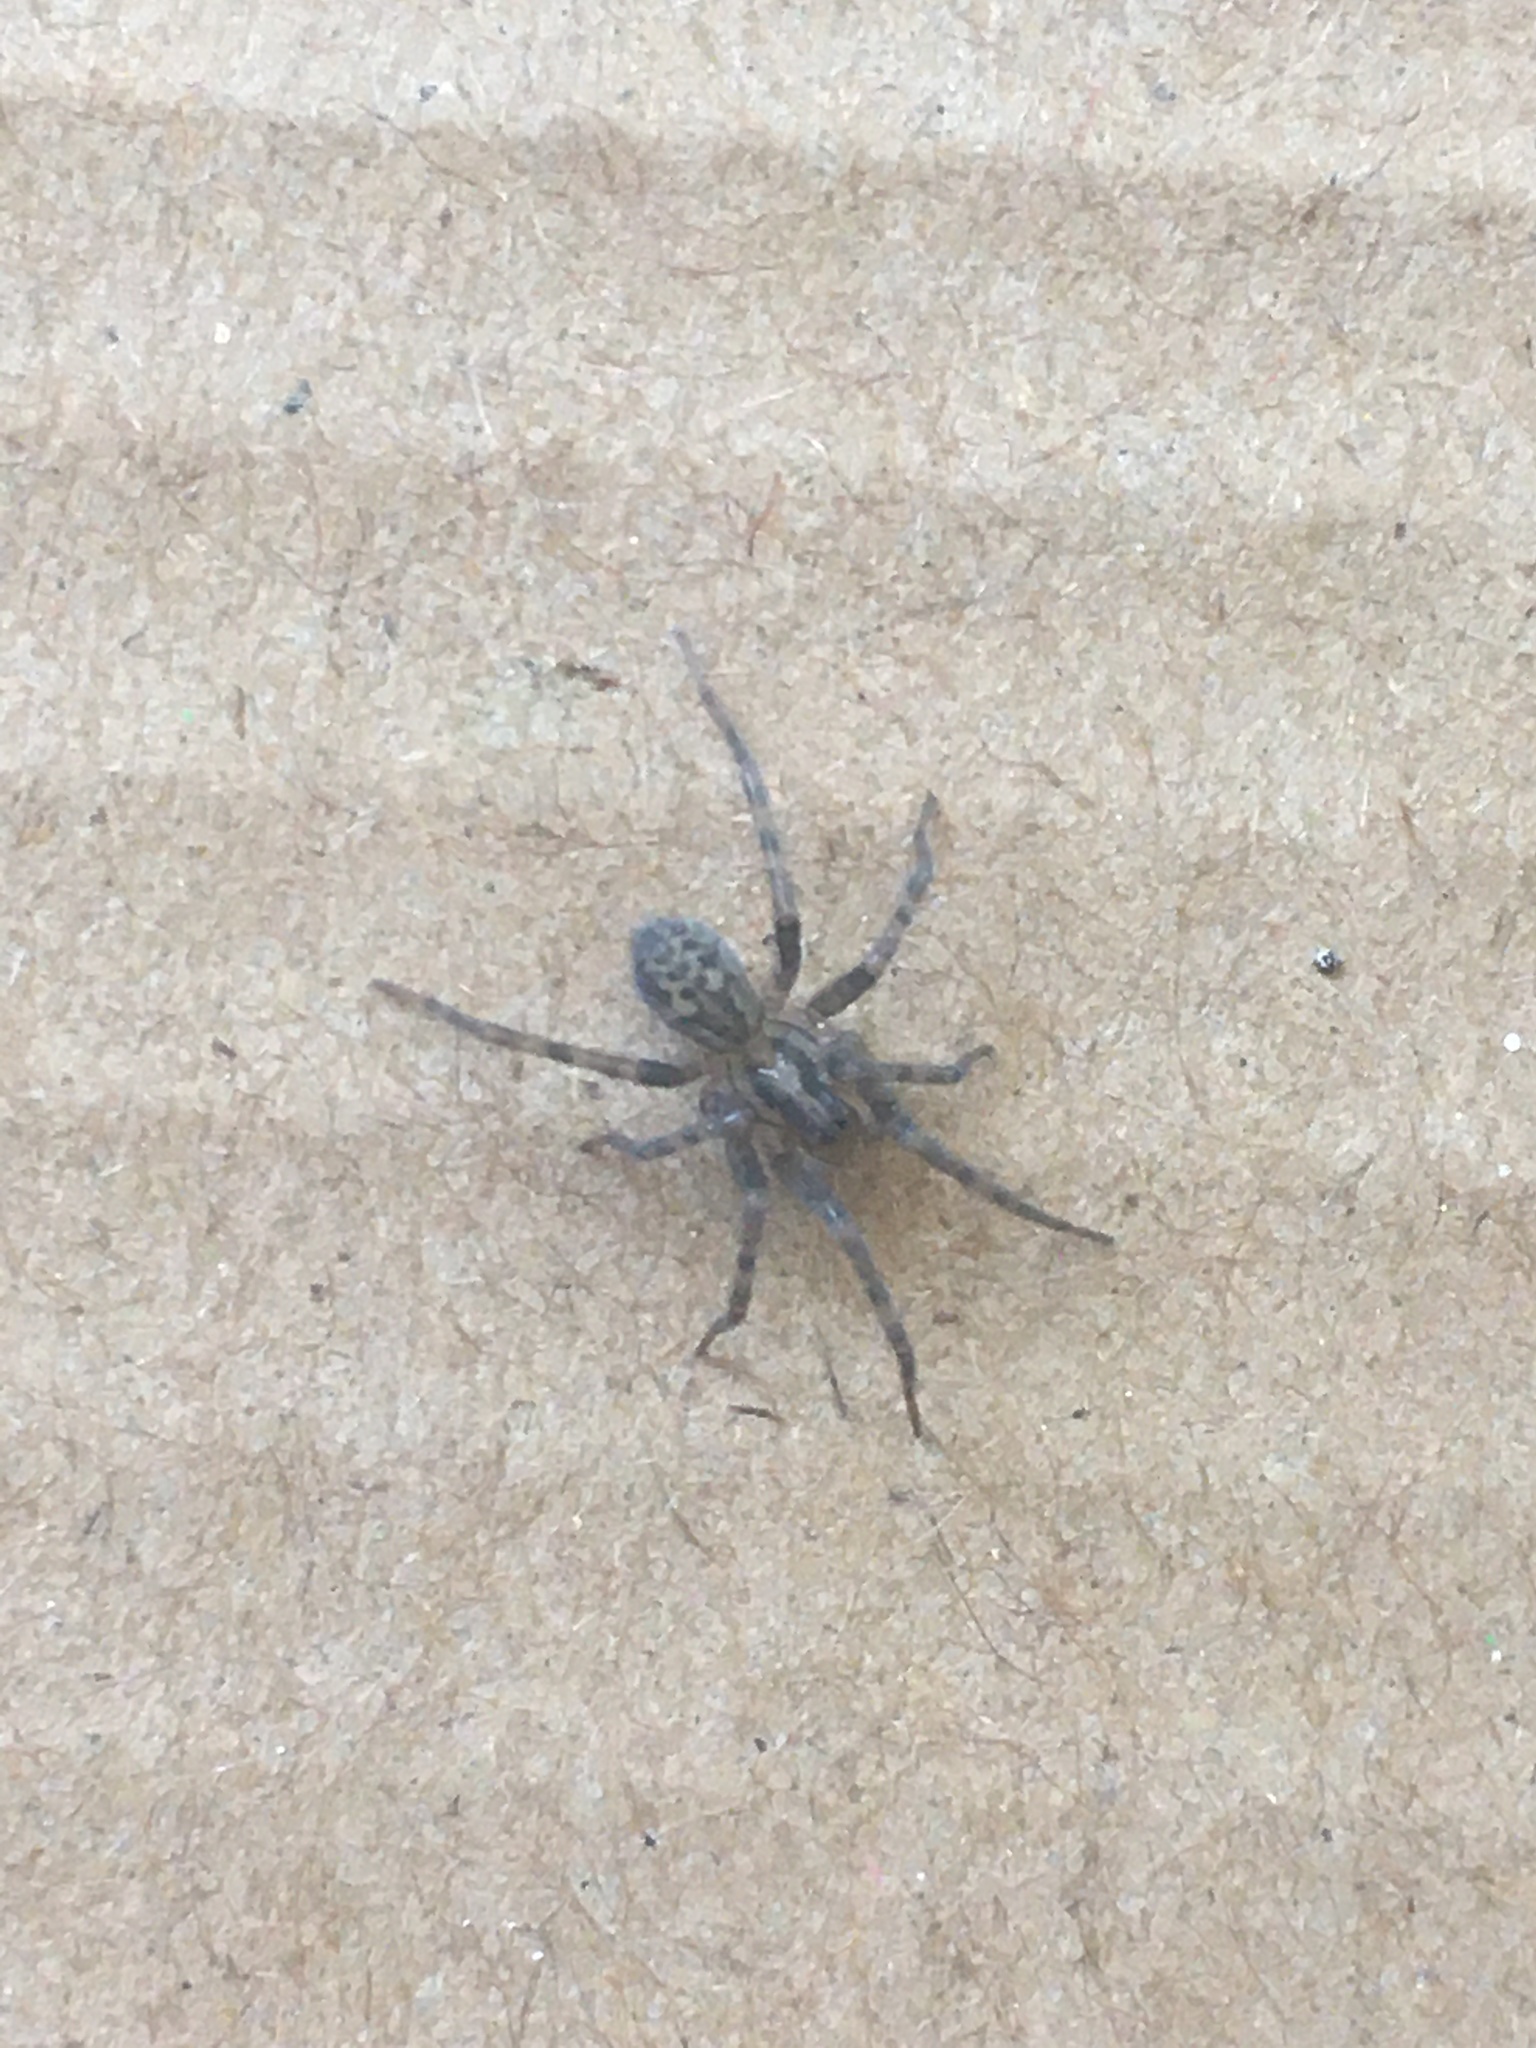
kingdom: Animalia
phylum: Arthropoda
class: Arachnida
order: Araneae
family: Agelenidae
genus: Tegenaria
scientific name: Tegenaria domestica
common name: Barn funnel weaver
